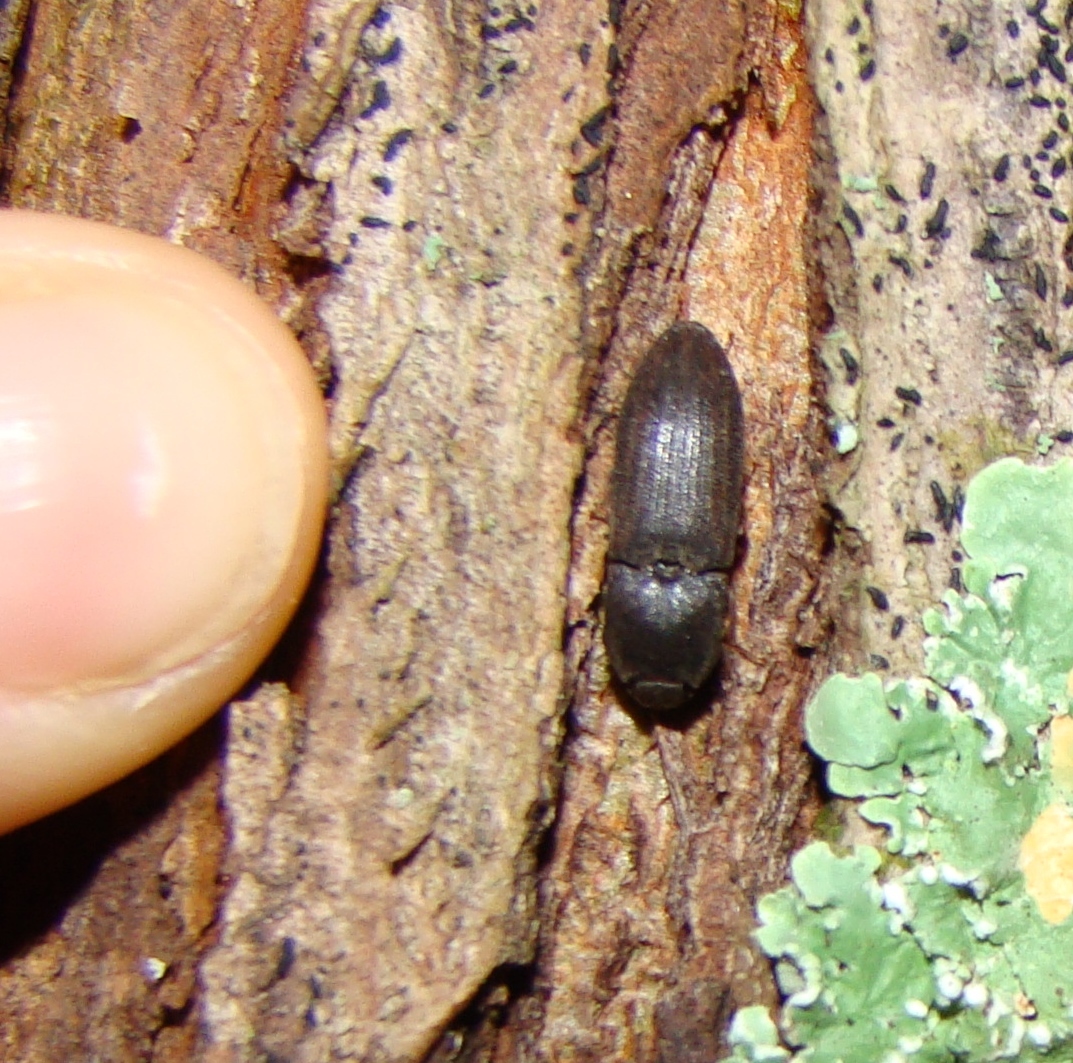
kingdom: Animalia
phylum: Arthropoda
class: Insecta
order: Coleoptera
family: Elateridae
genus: Agrypnus
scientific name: Agrypnus
